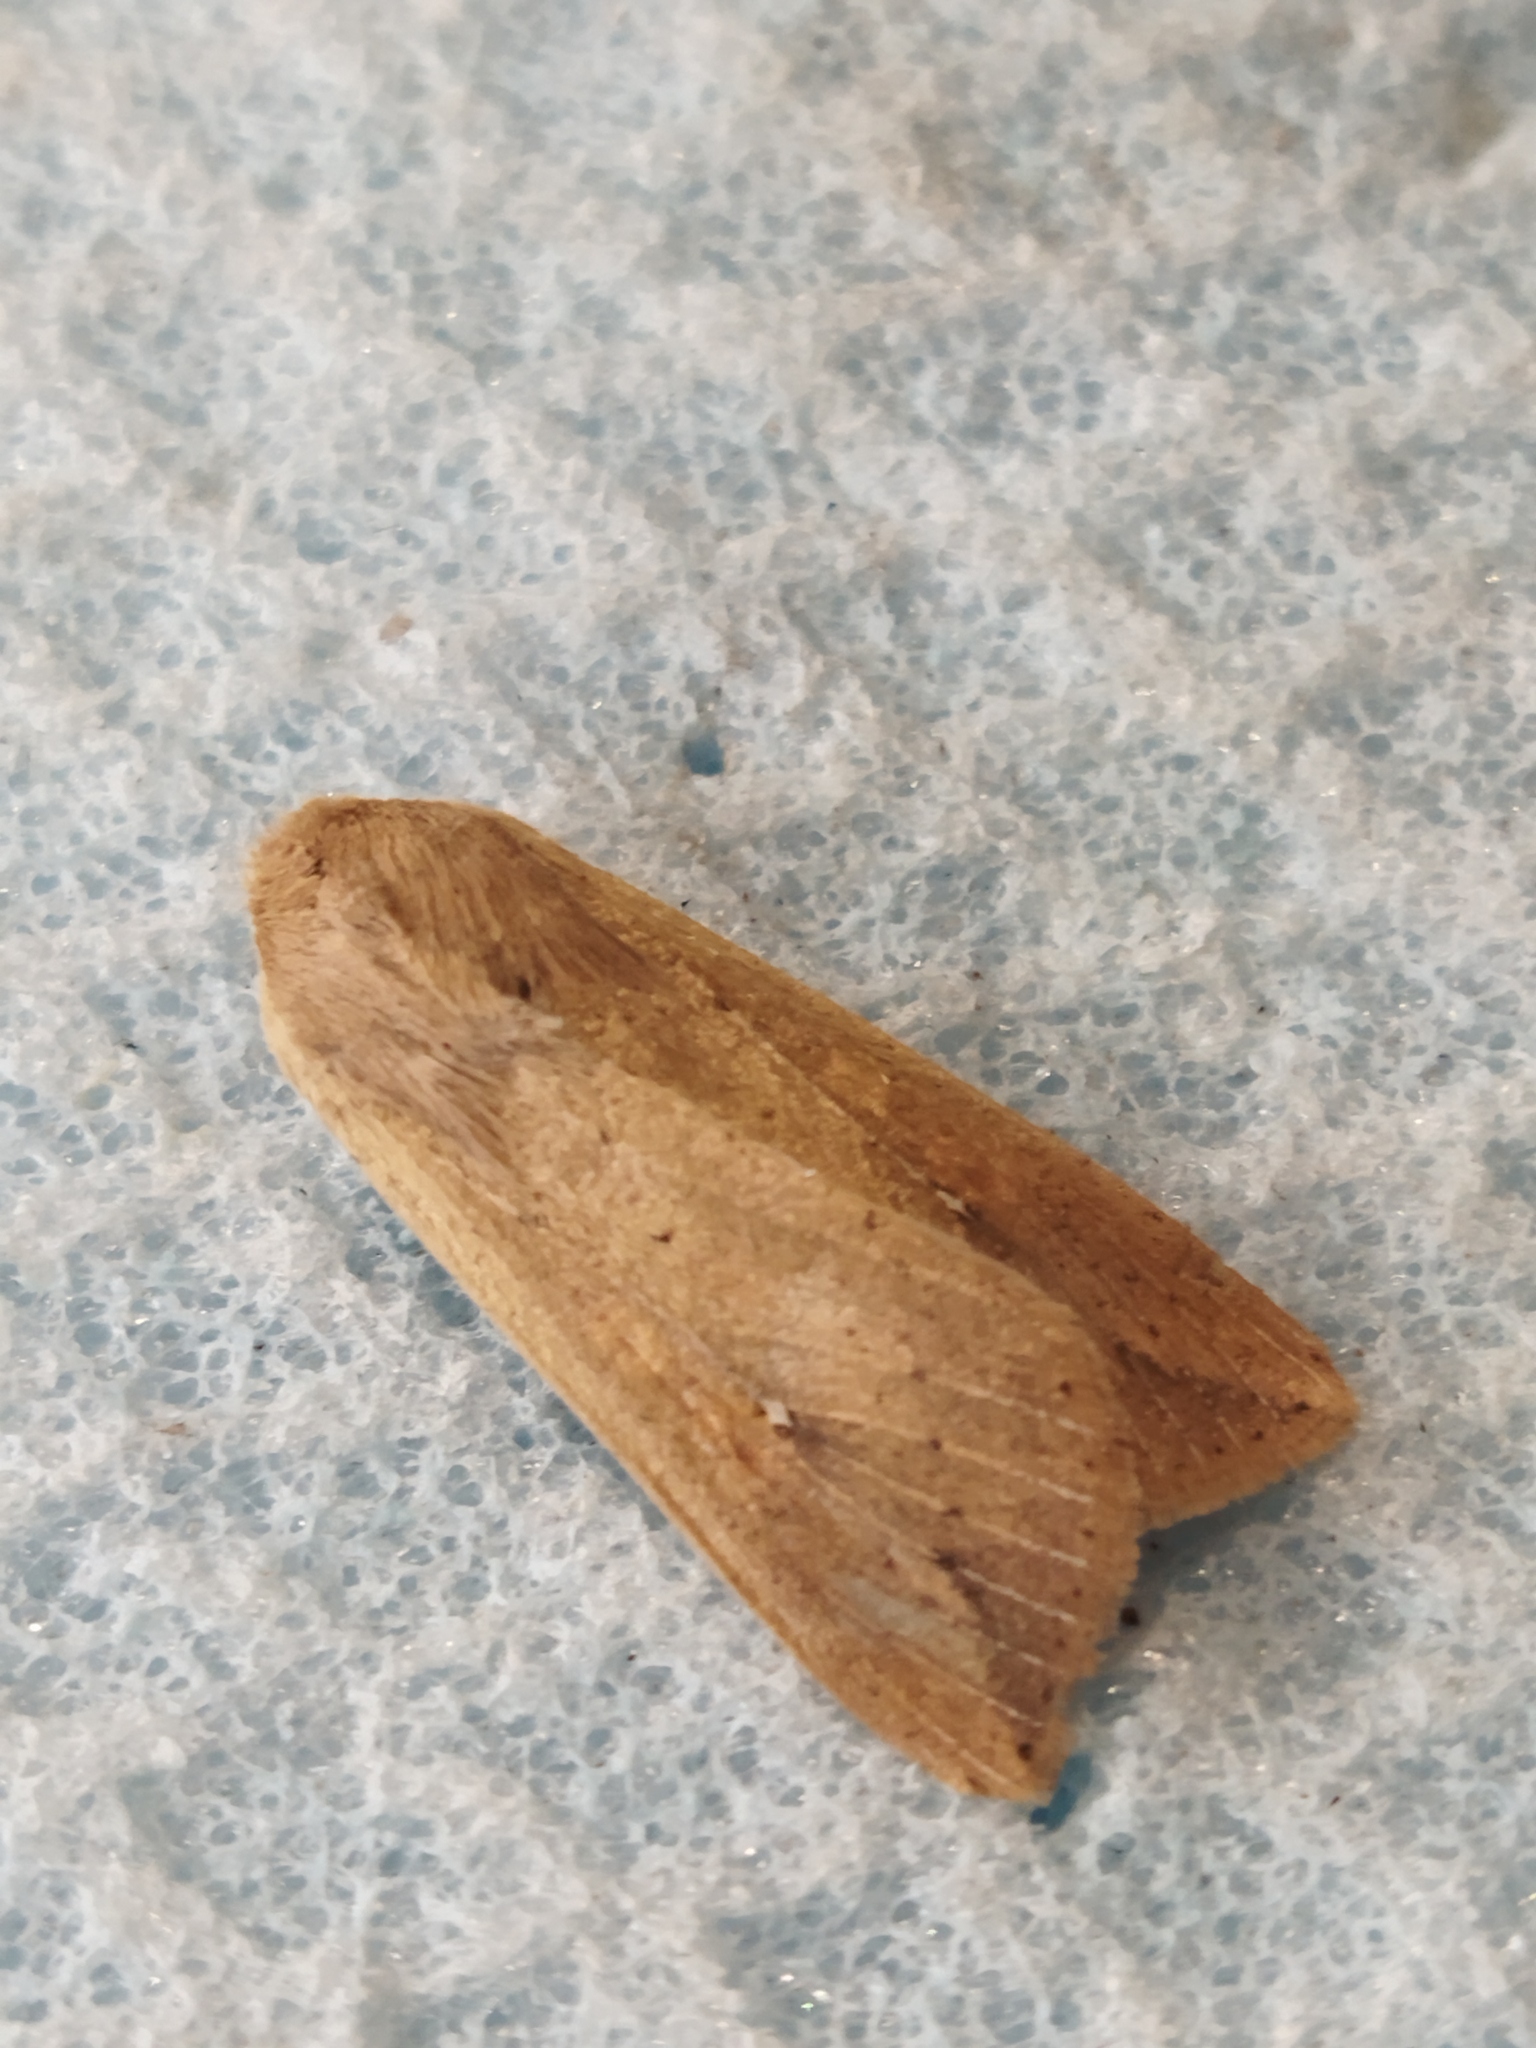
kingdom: Animalia
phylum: Arthropoda
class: Insecta
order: Lepidoptera
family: Noctuidae
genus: Mythimna
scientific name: Mythimna unipuncta
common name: White-speck
